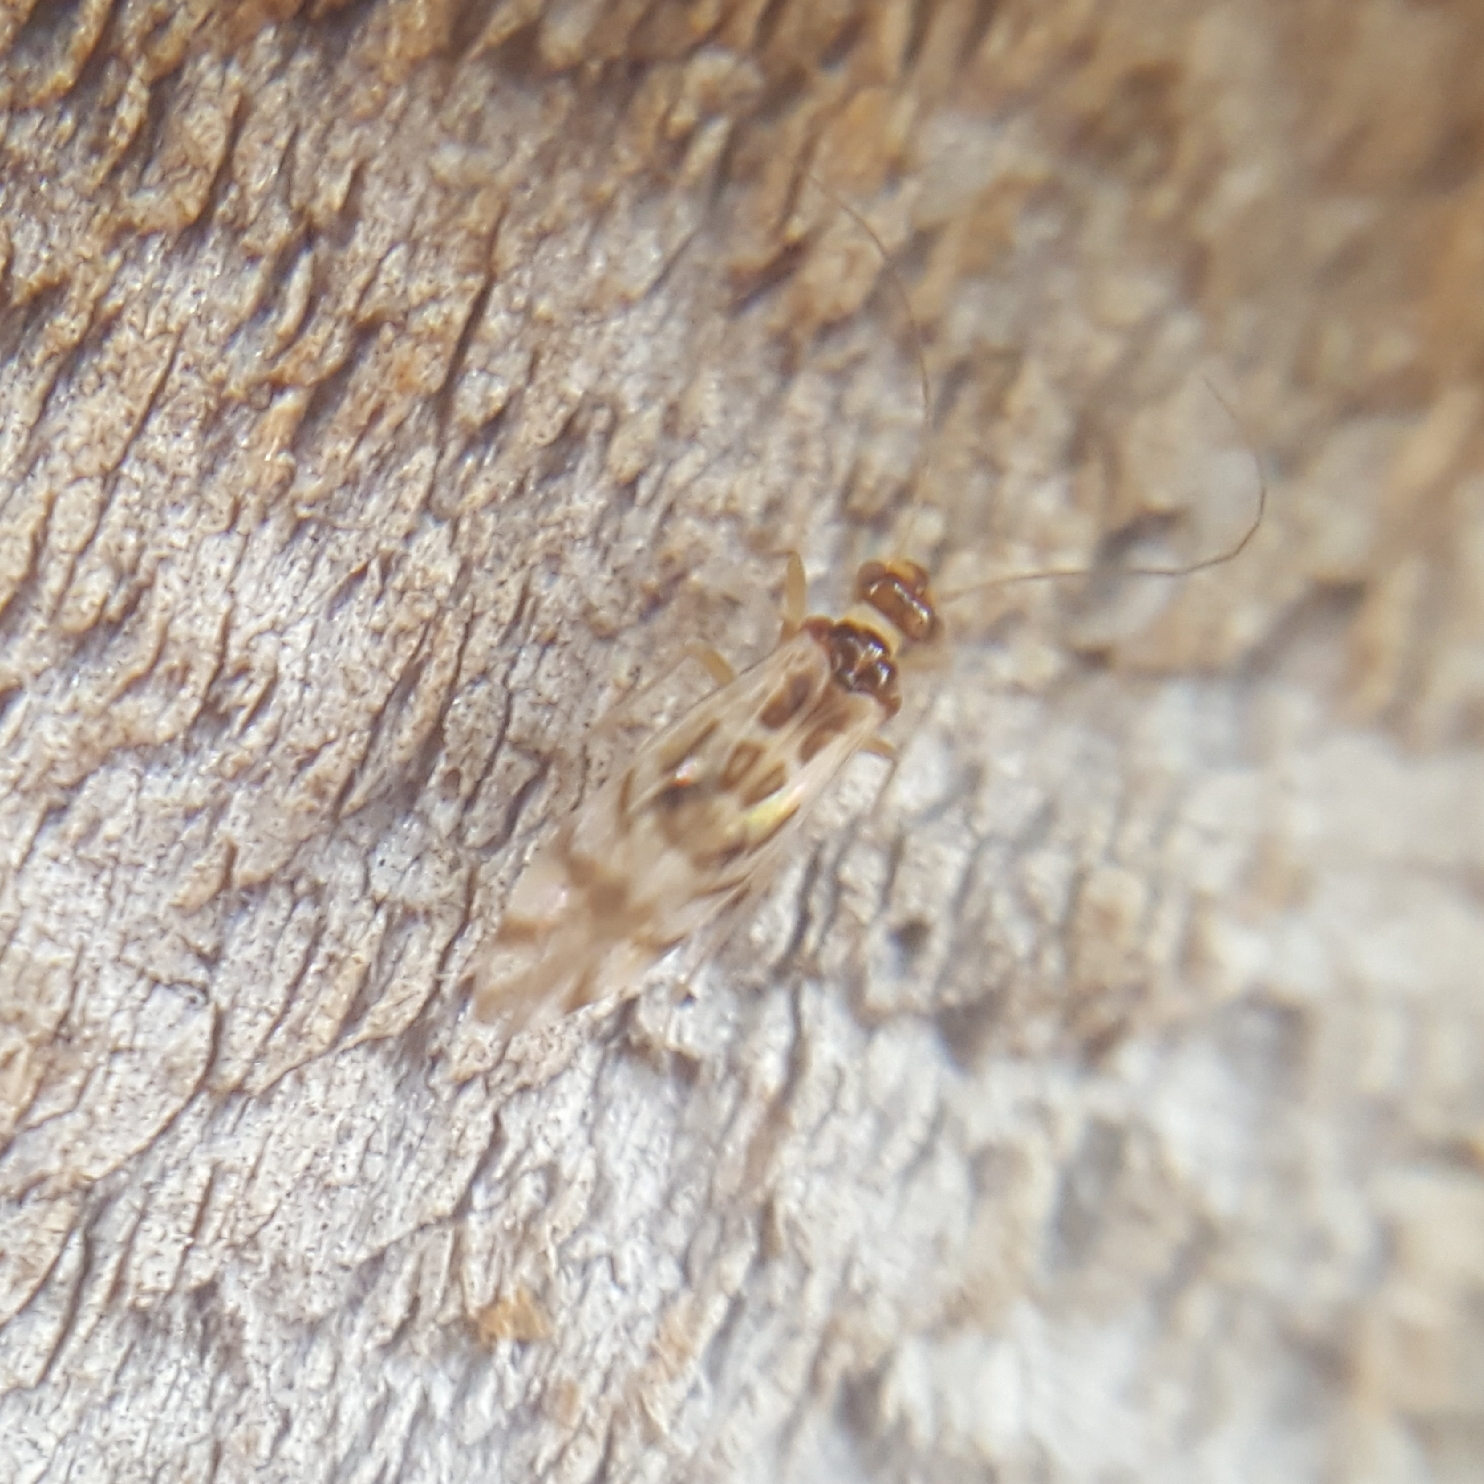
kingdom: Animalia
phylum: Arthropoda
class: Insecta
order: Psocodea
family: Stenopsocidae
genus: Graphopsocus
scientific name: Graphopsocus cruciatus
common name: Lizard bark louse
